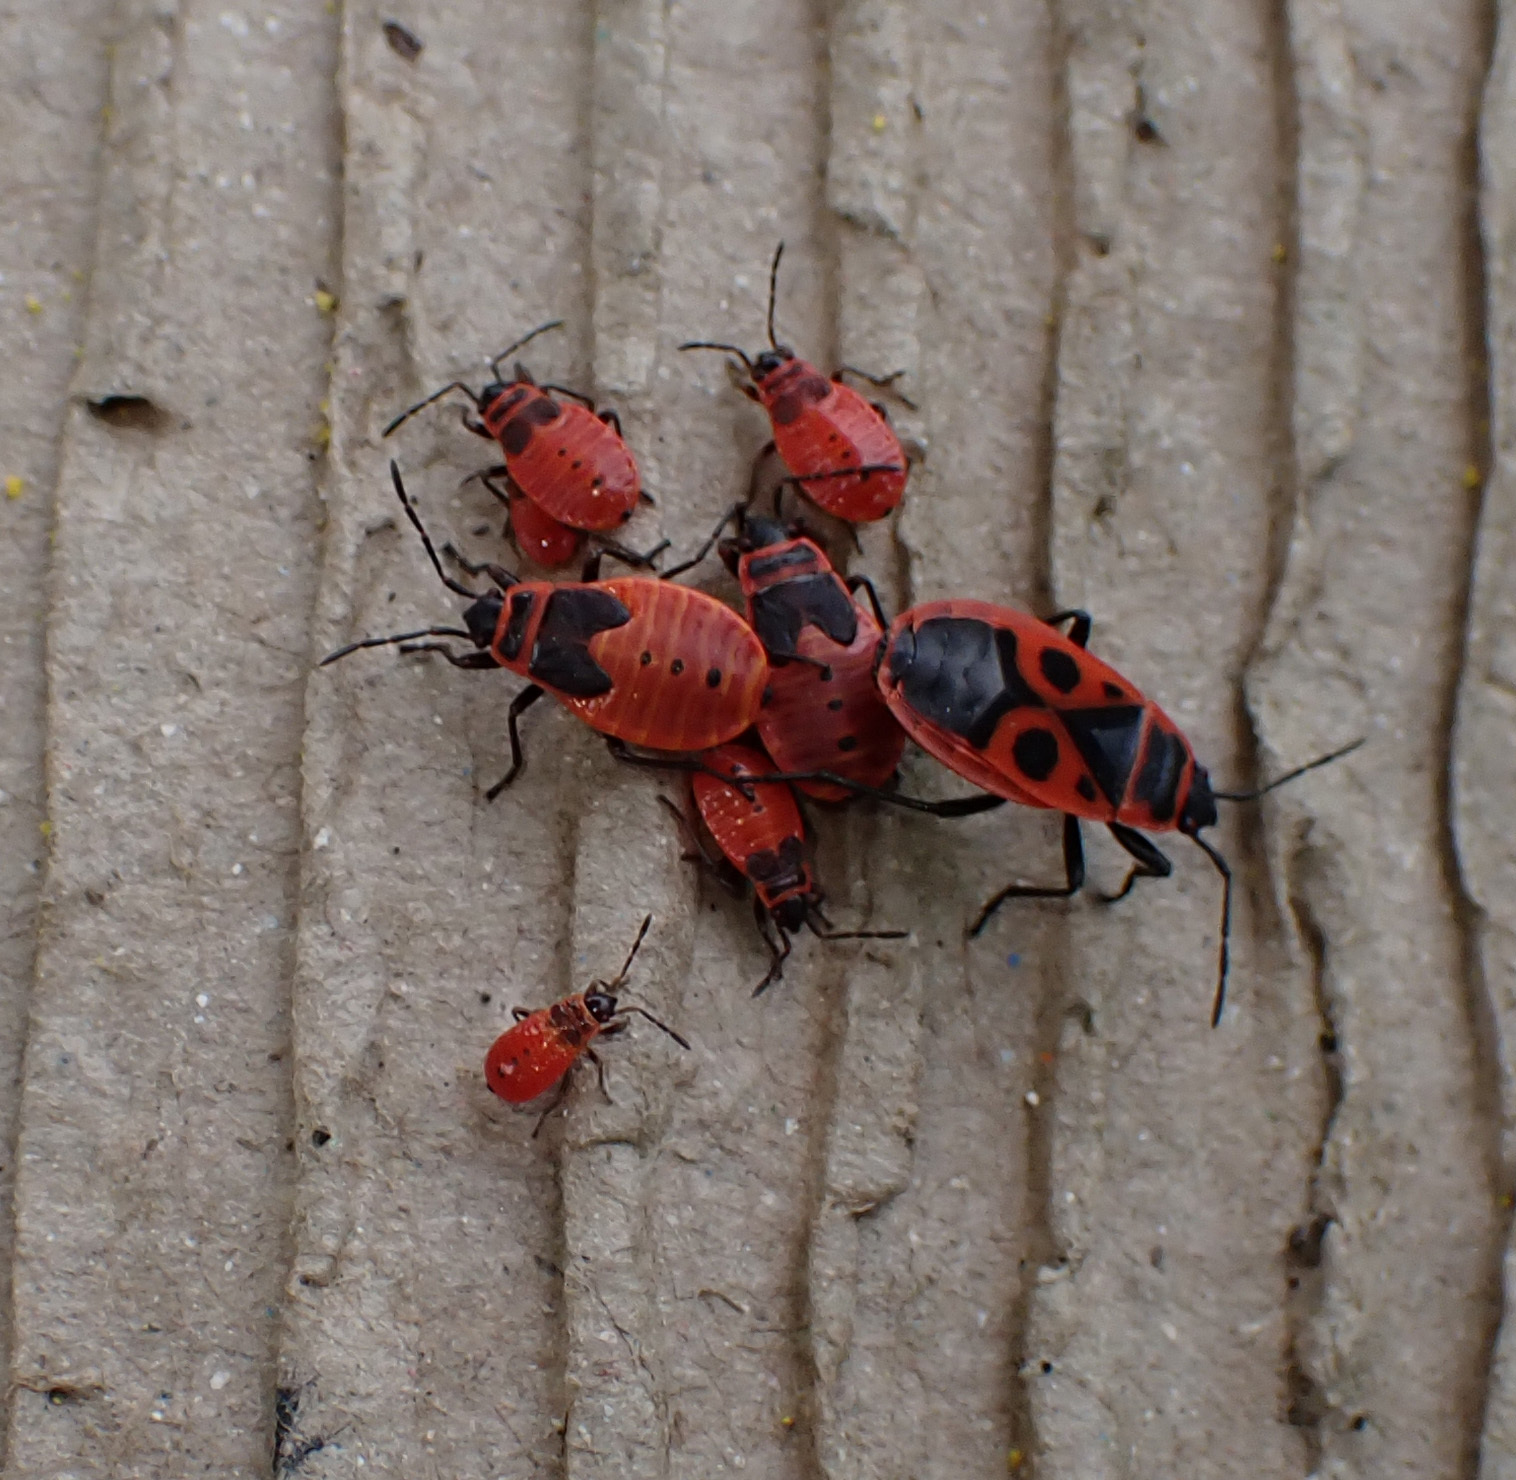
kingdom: Animalia
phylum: Arthropoda
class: Insecta
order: Hemiptera
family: Pyrrhocoridae
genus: Pyrrhocoris
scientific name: Pyrrhocoris apterus
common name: Firebug
